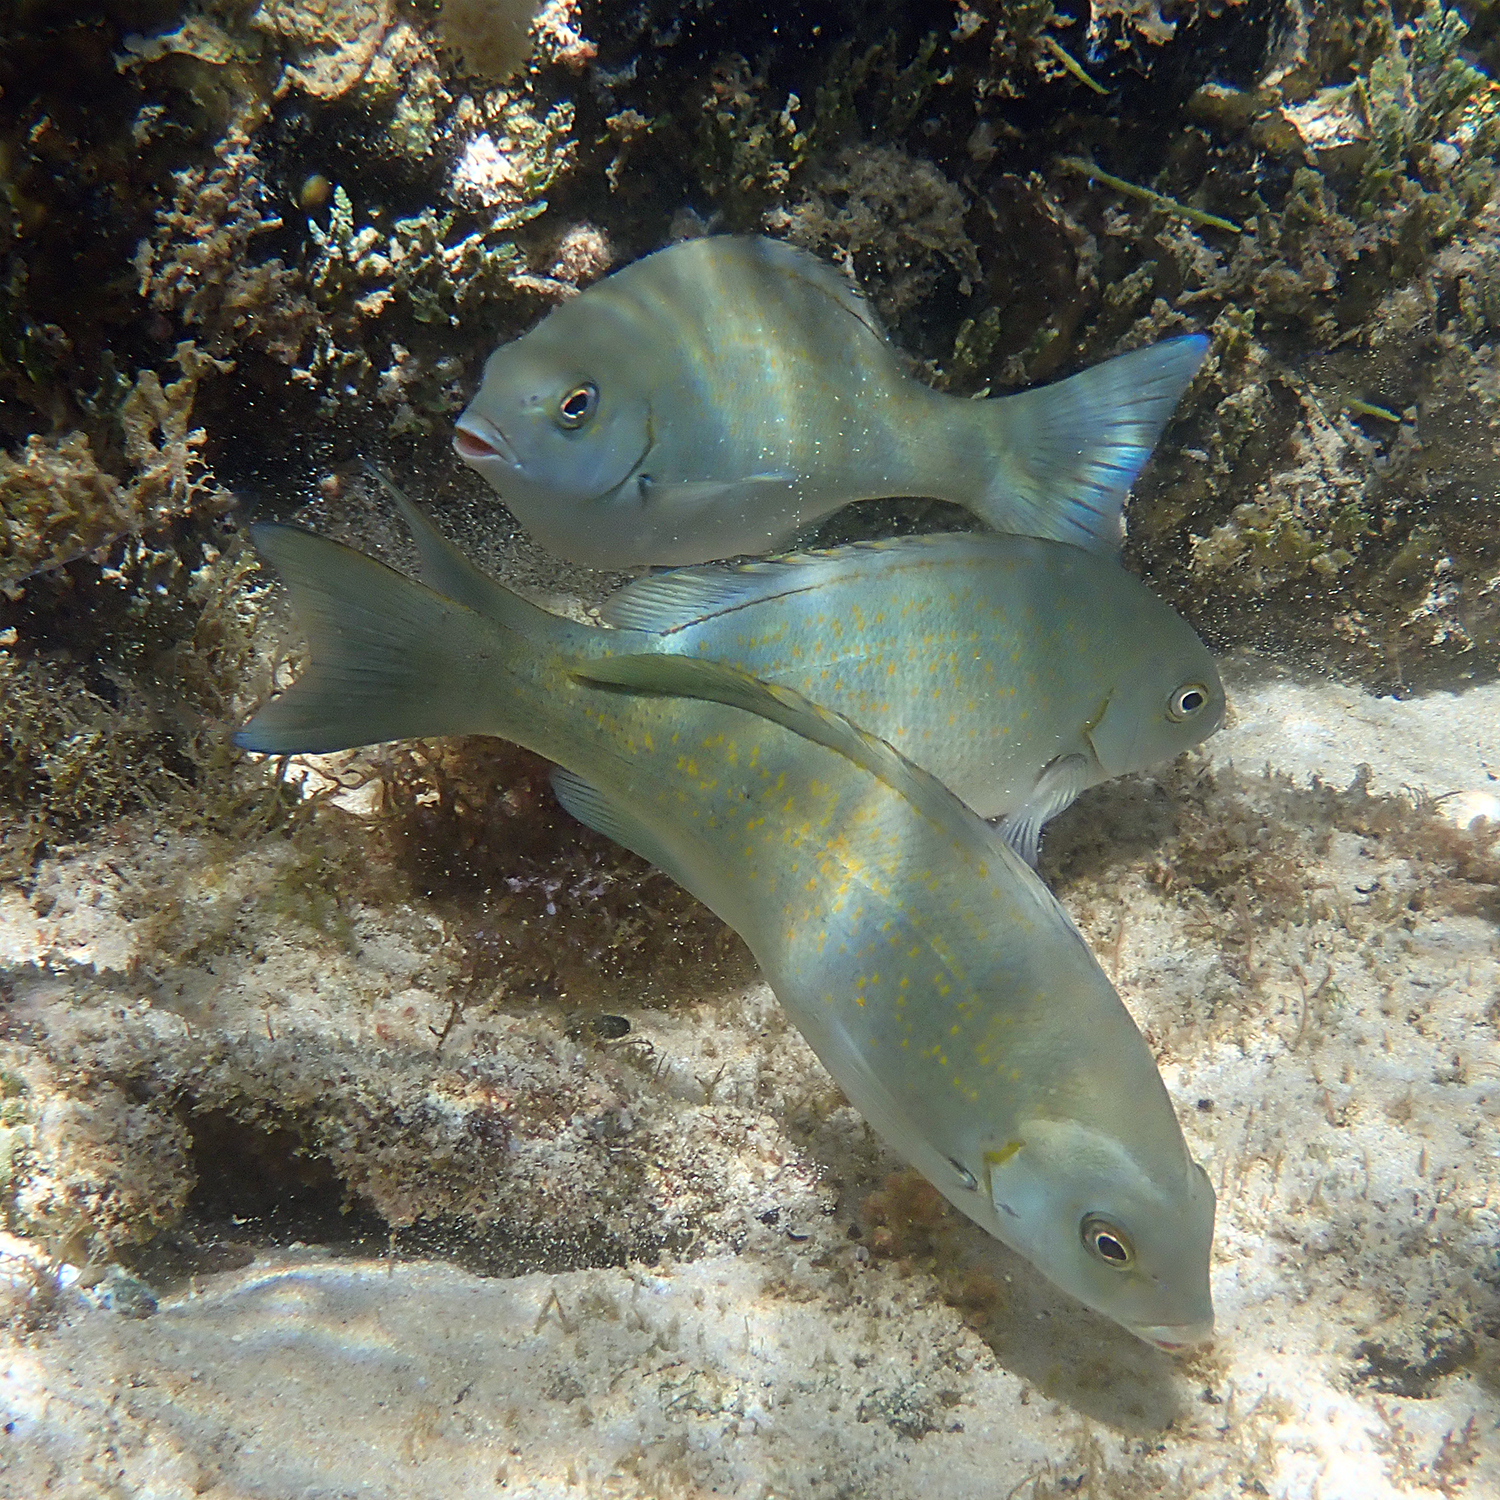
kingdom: Animalia
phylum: Chordata
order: Perciformes
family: Kyphosidae
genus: Girella
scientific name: Girella cyanea
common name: Bluefish
